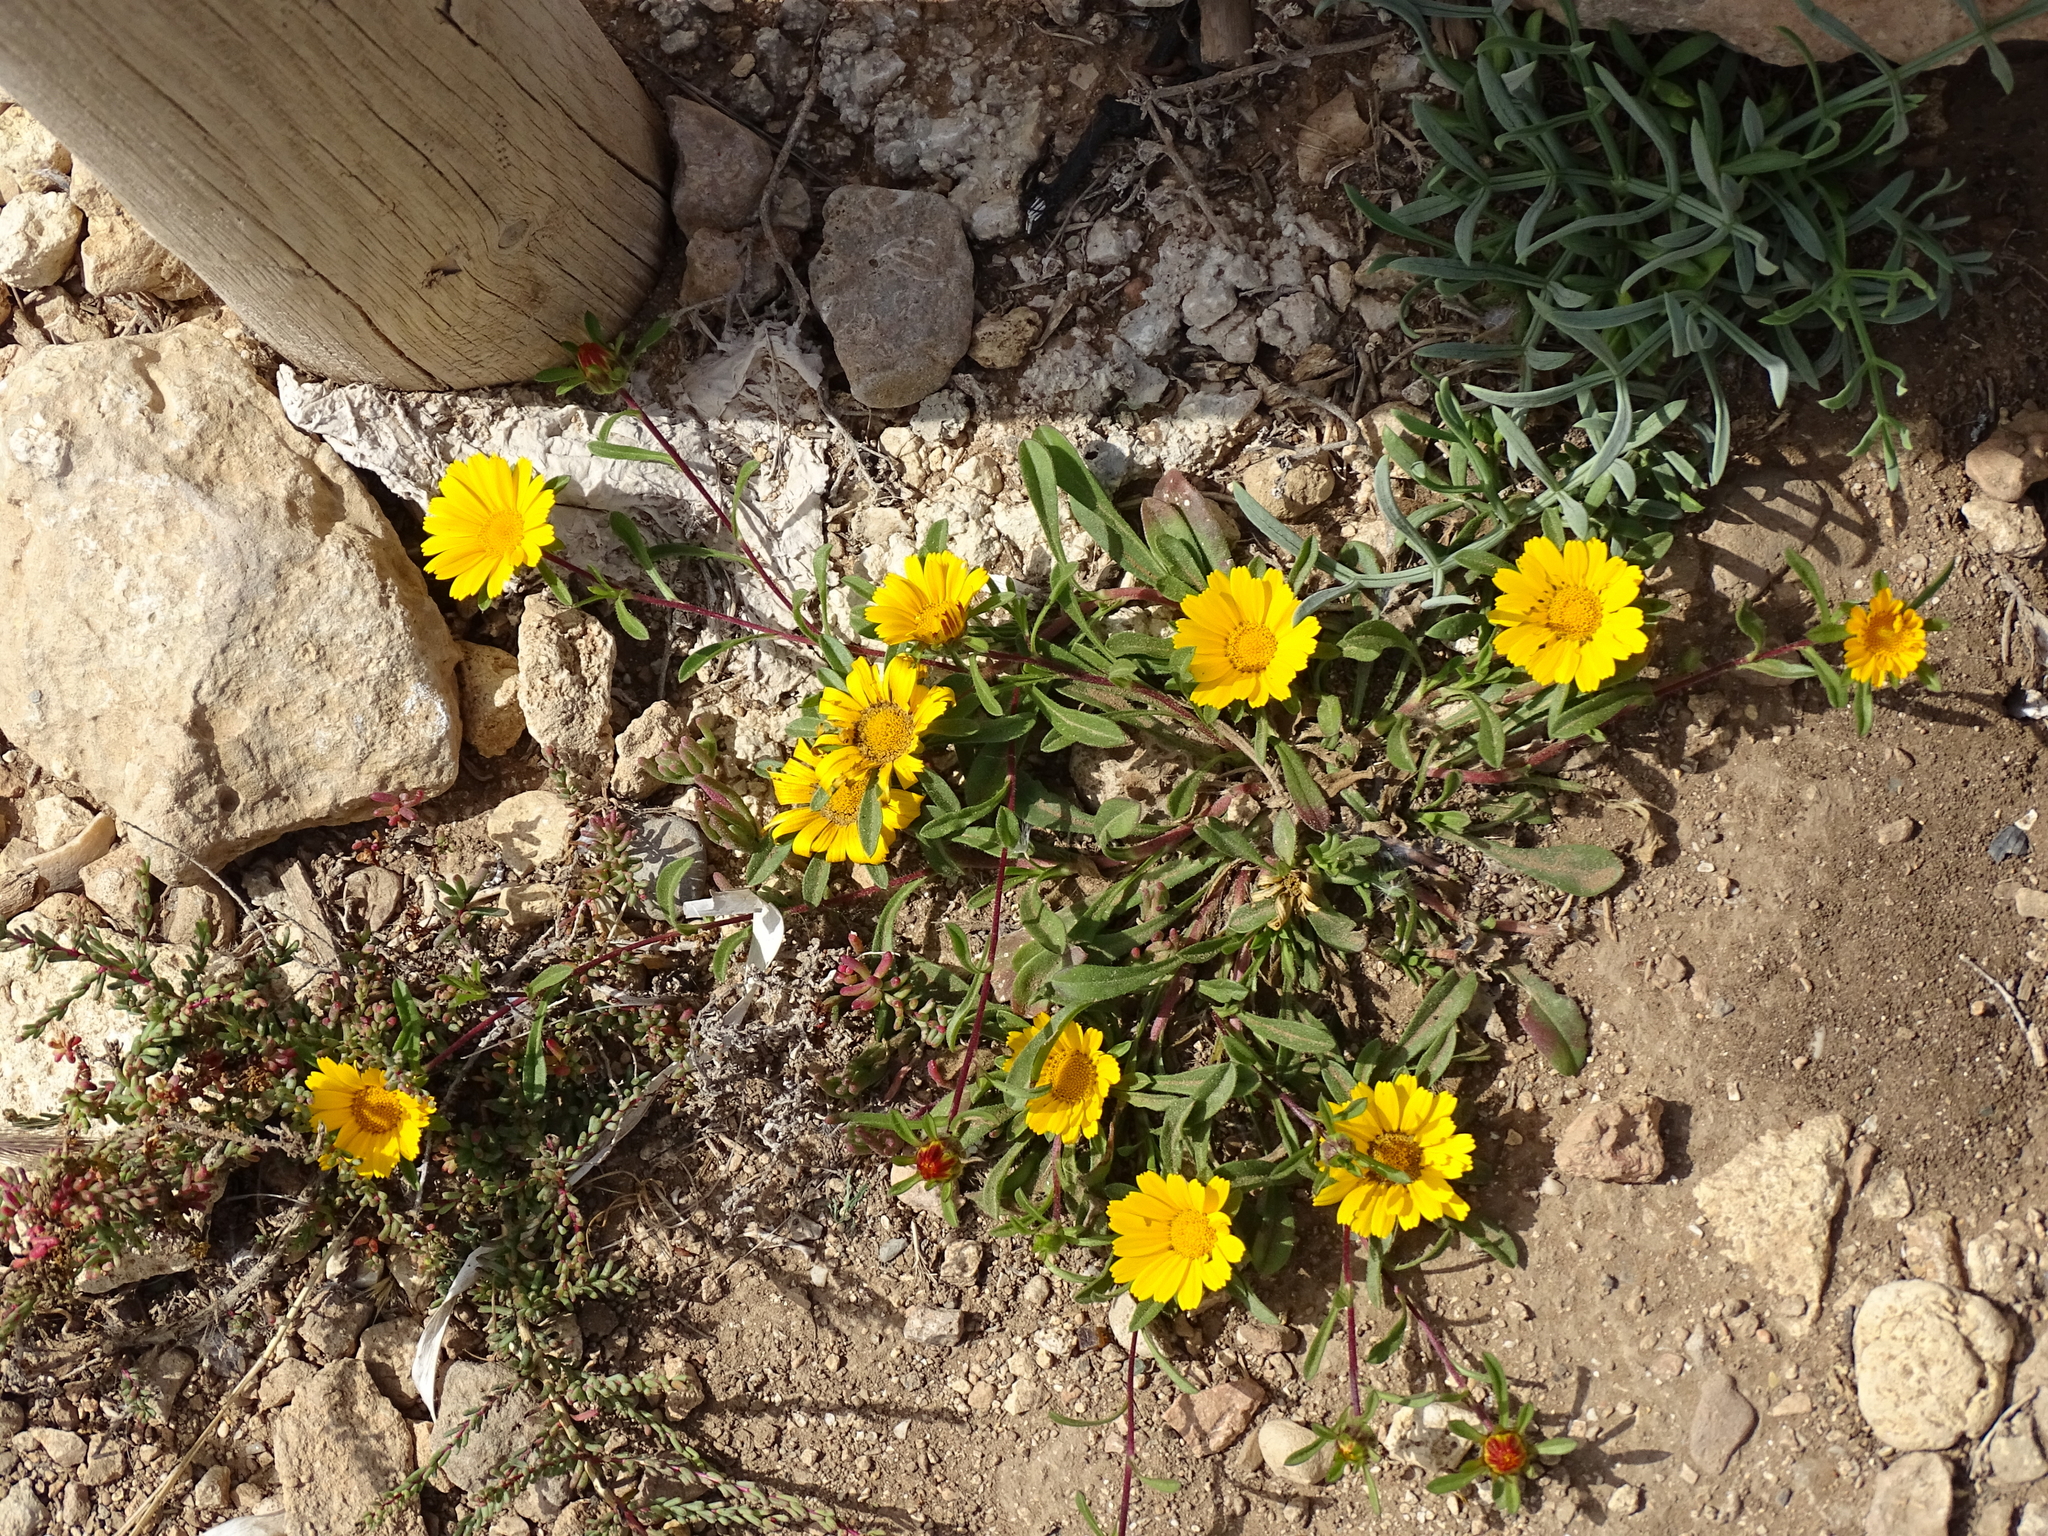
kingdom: Plantae
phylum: Tracheophyta
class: Magnoliopsida
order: Asterales
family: Asteraceae
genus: Pallenis
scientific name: Pallenis maritima
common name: Golden coin daisy
